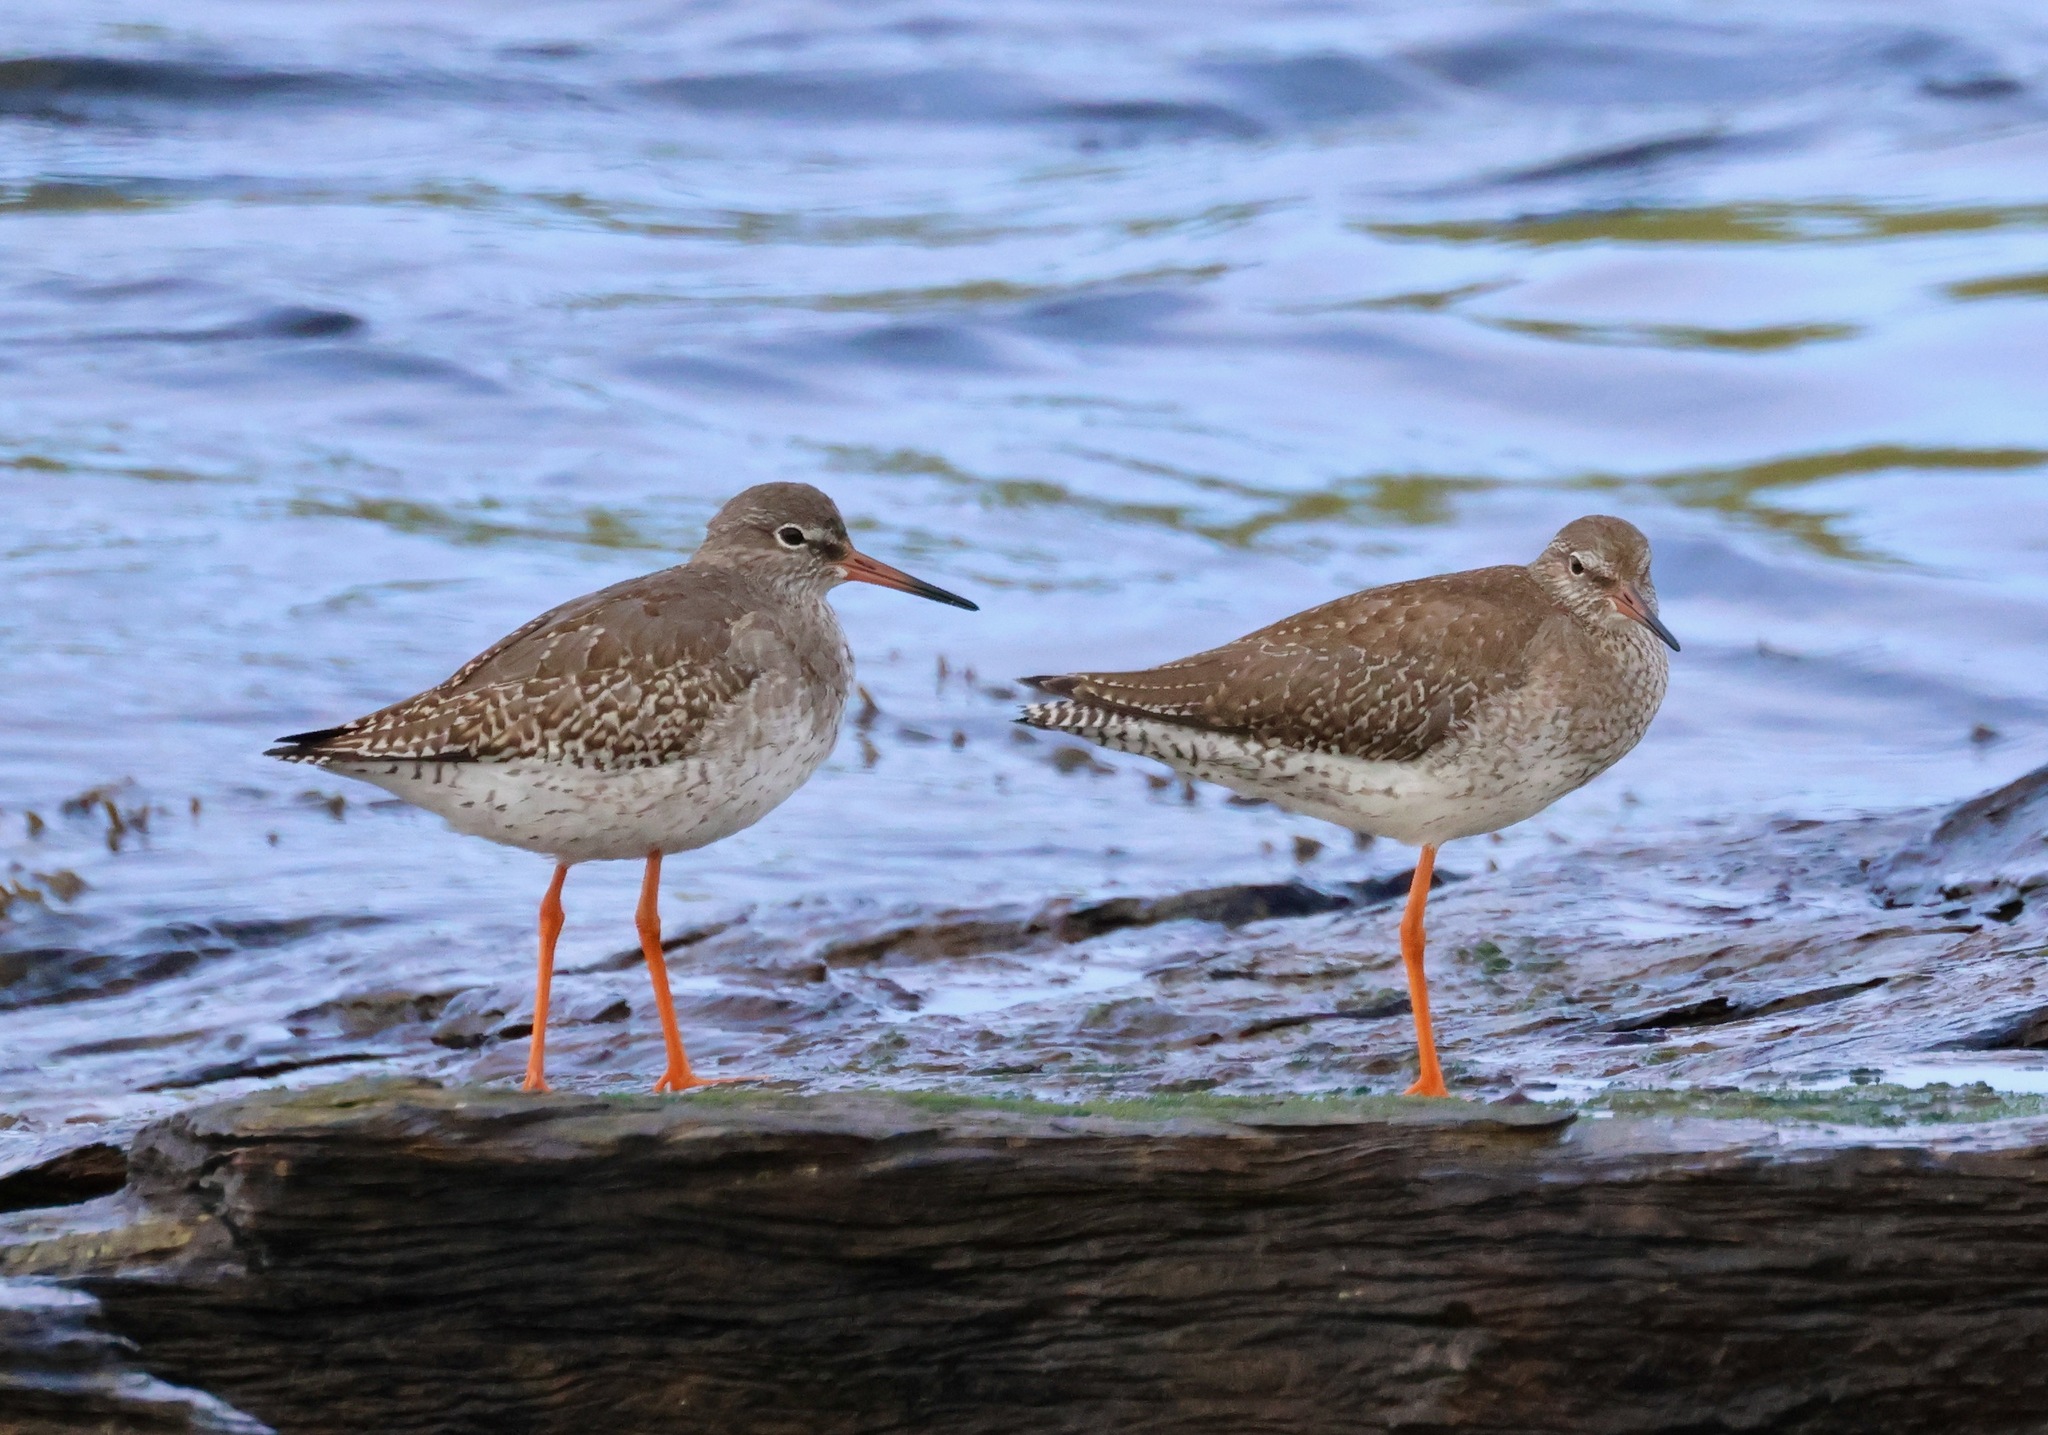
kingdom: Animalia
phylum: Chordata
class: Aves
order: Charadriiformes
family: Scolopacidae
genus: Tringa
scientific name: Tringa totanus
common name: Common redshank
